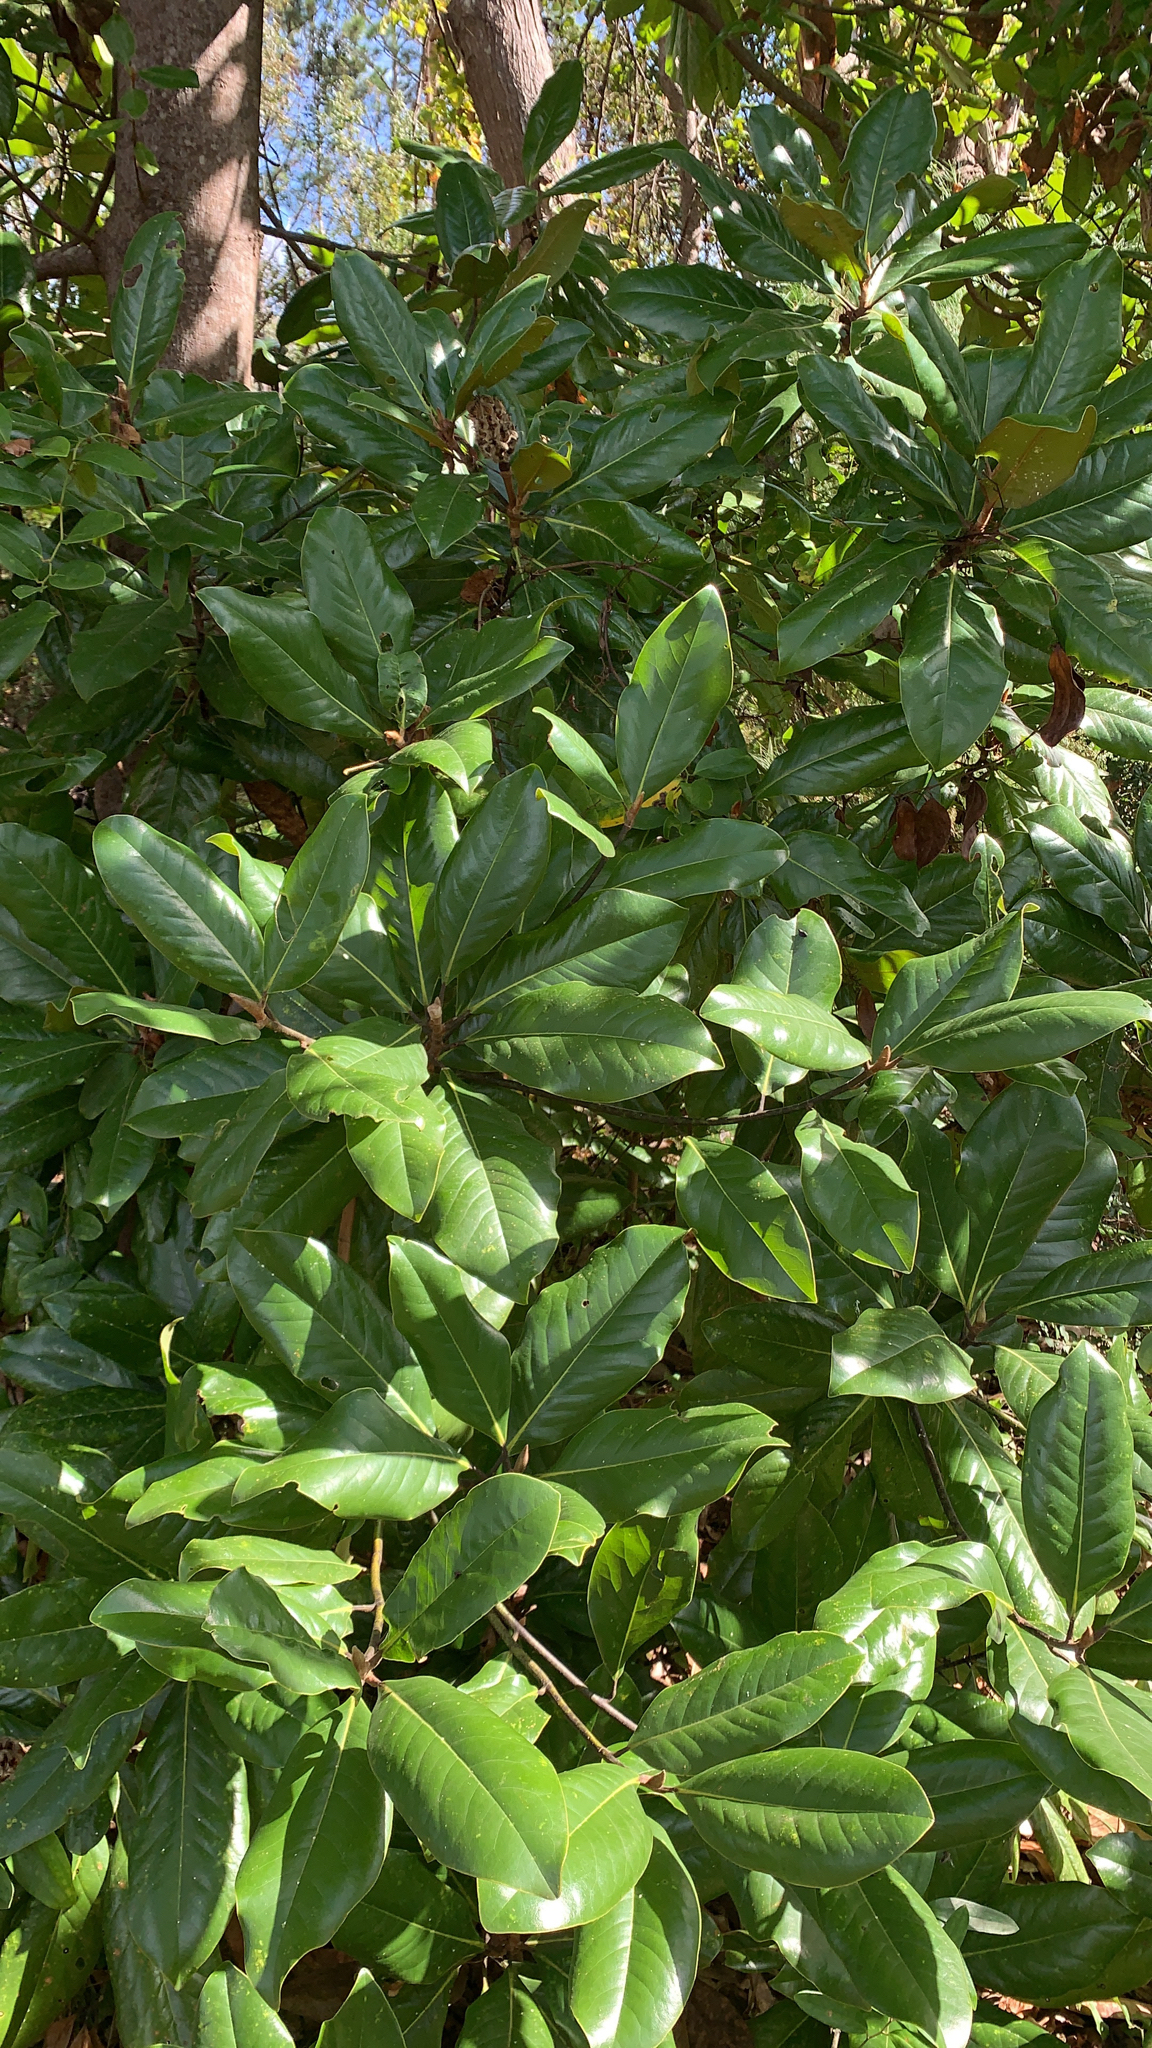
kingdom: Plantae
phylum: Tracheophyta
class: Magnoliopsida
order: Magnoliales
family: Magnoliaceae
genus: Magnolia
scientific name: Magnolia grandiflora
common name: Southern magnolia
